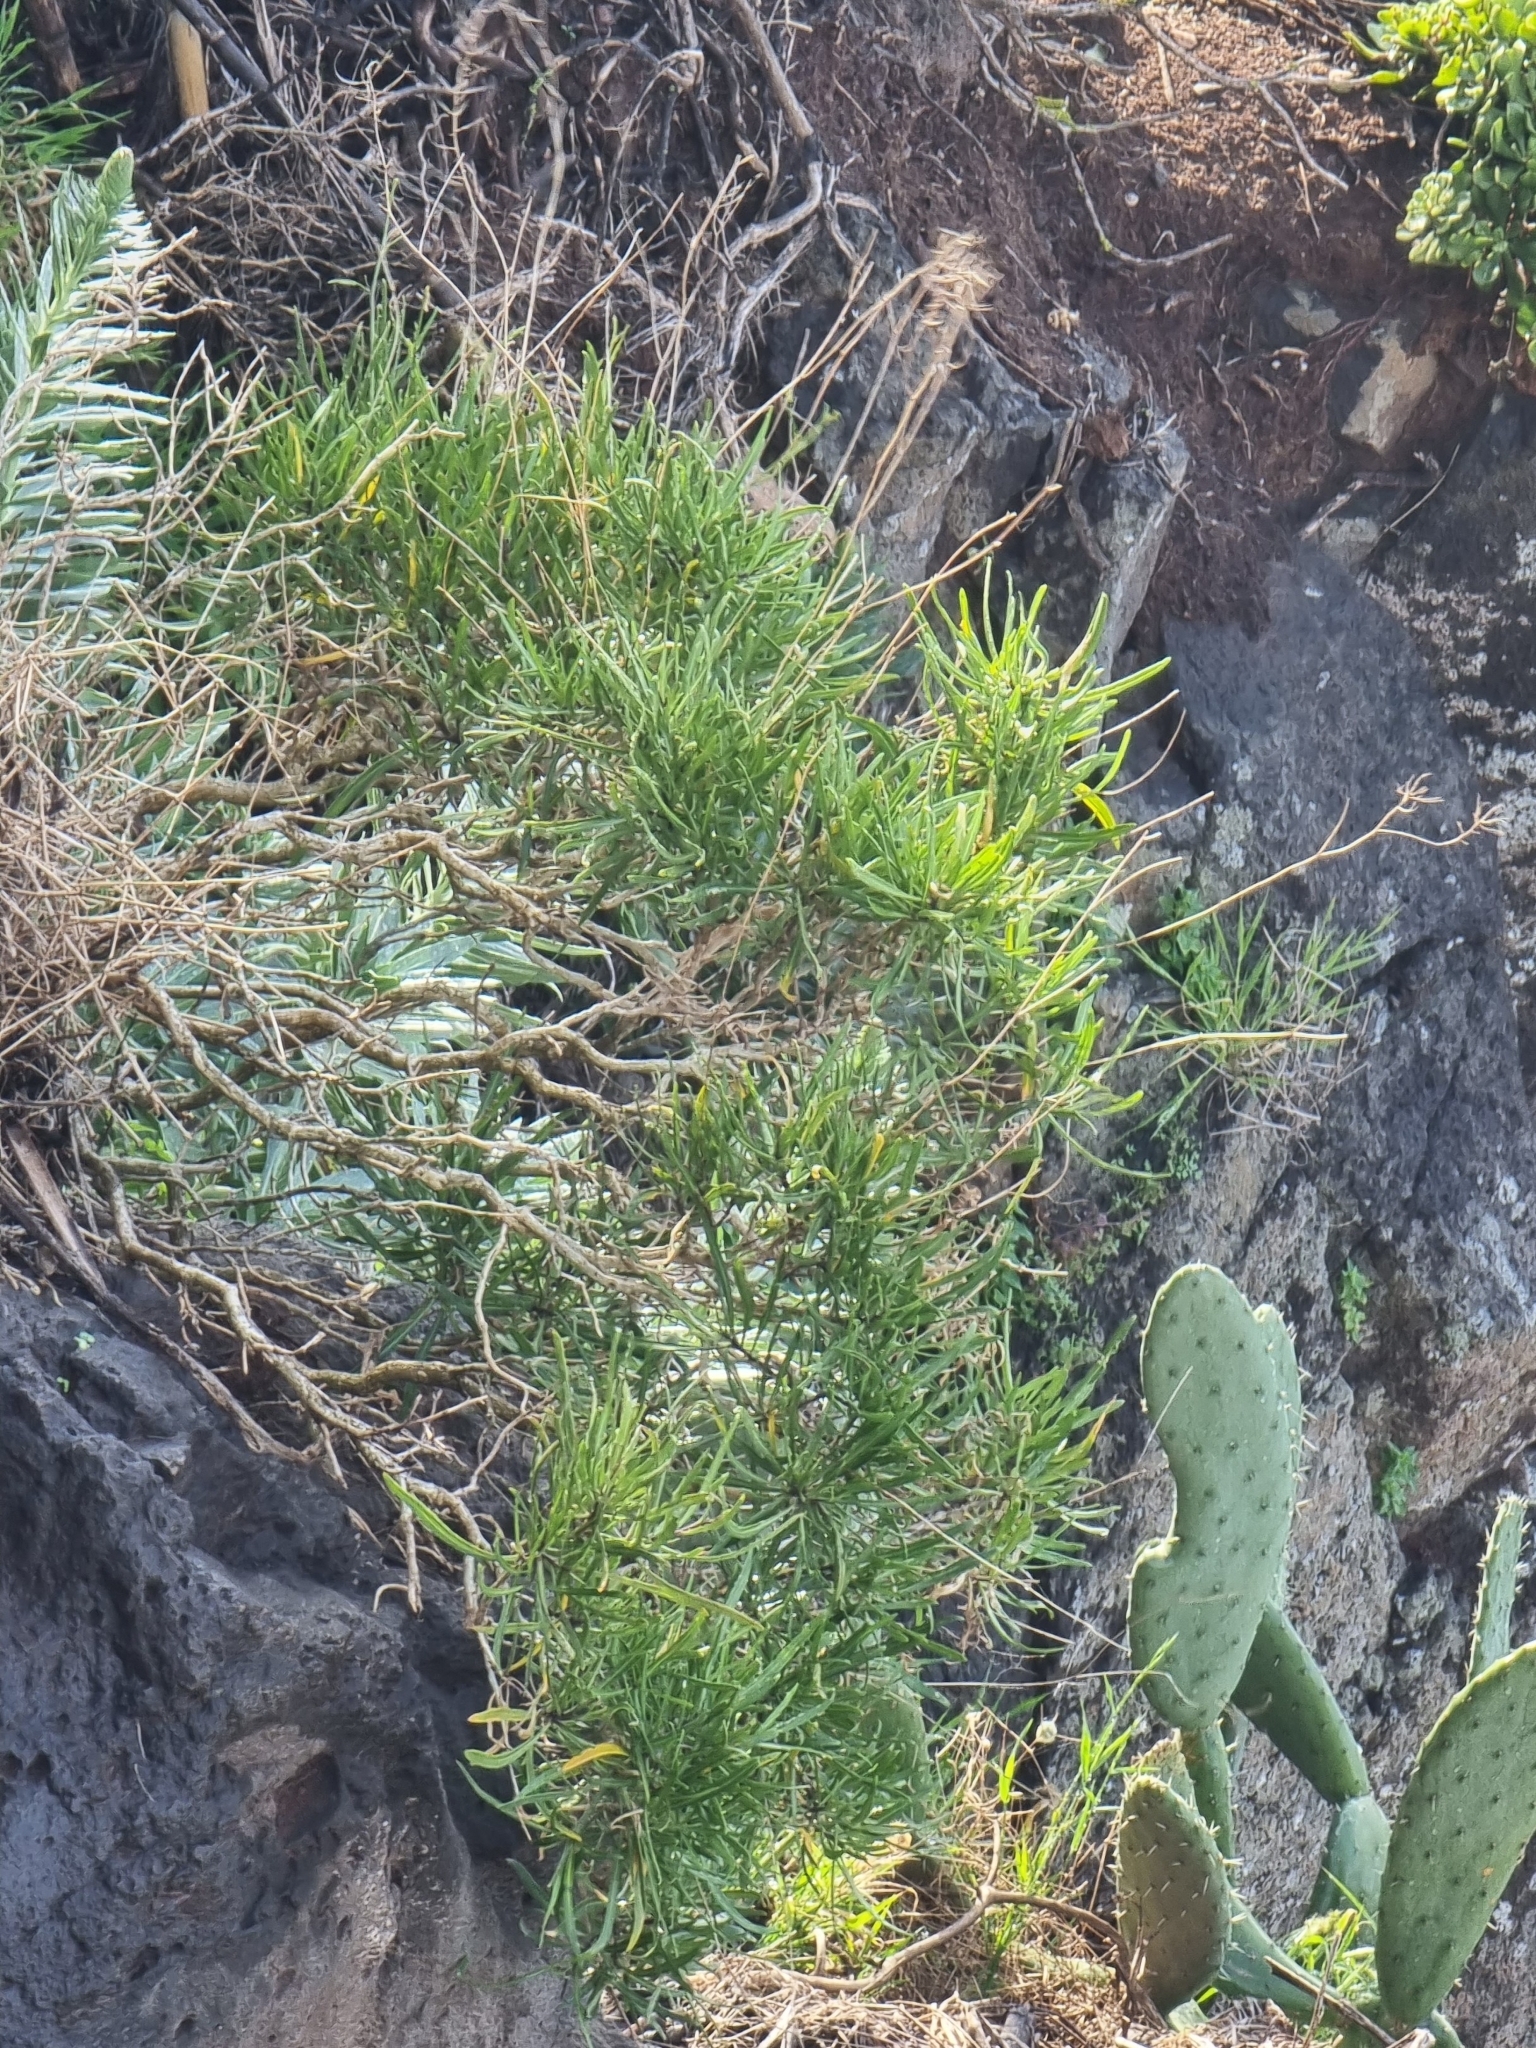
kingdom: Plantae
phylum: Tracheophyta
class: Magnoliopsida
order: Brassicales
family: Brassicaceae
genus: Sinapidendron
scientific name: Sinapidendron angustifolium
